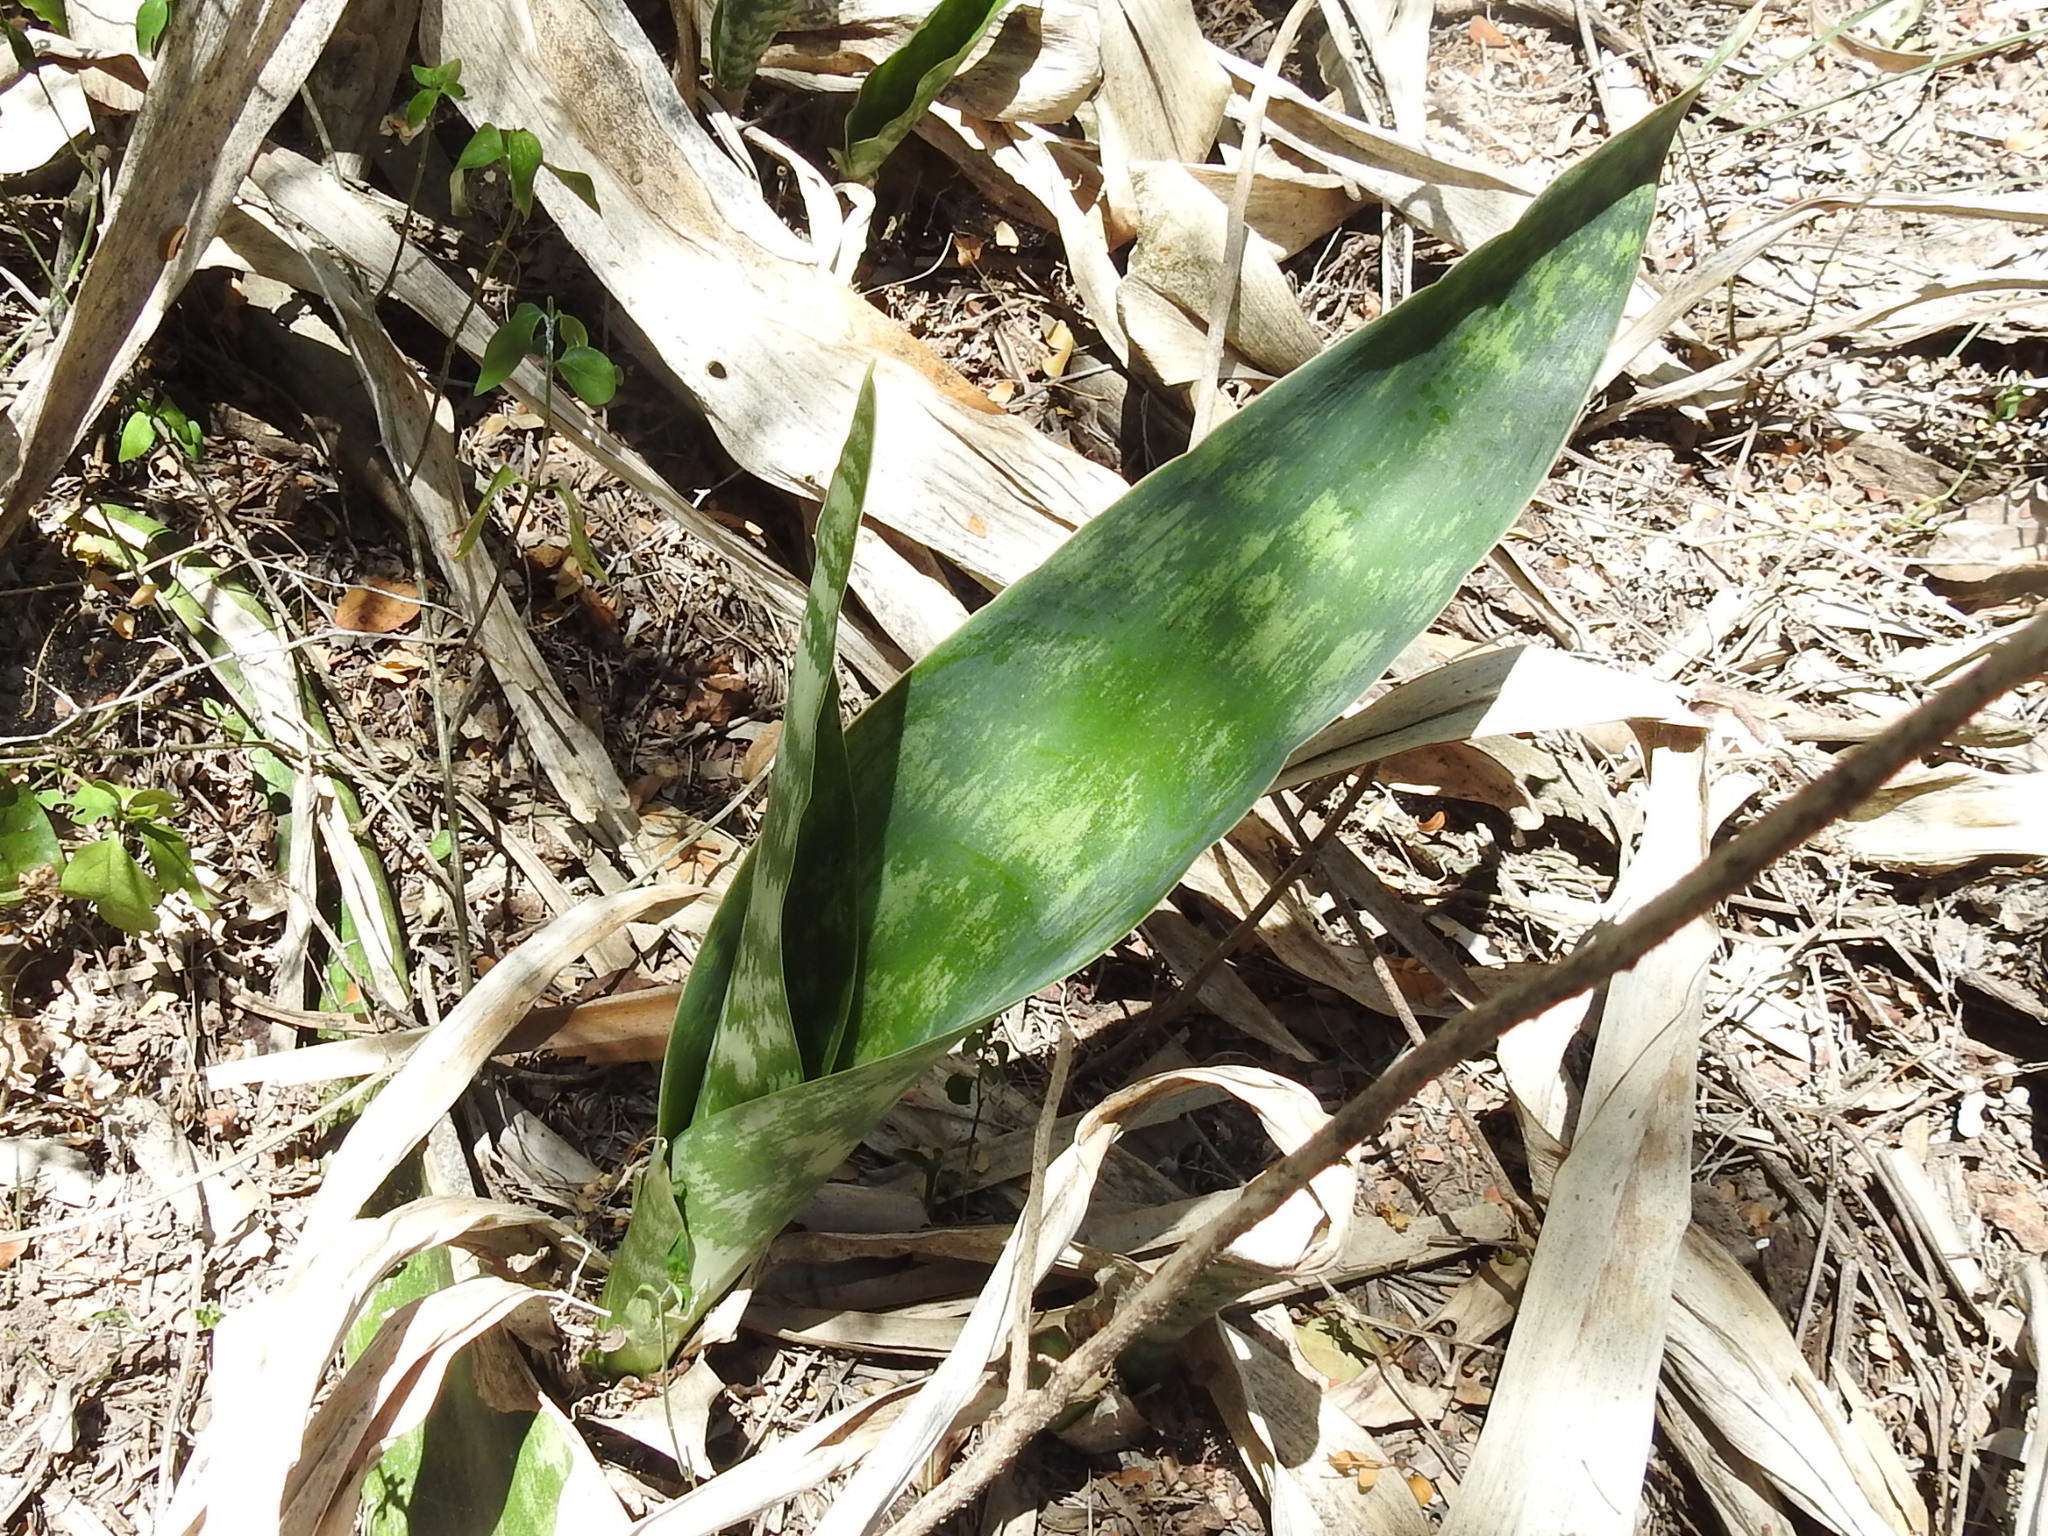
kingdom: Plantae
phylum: Tracheophyta
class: Liliopsida
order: Asparagales
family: Asparagaceae
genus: Dracaena
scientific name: Dracaena trifasciata
